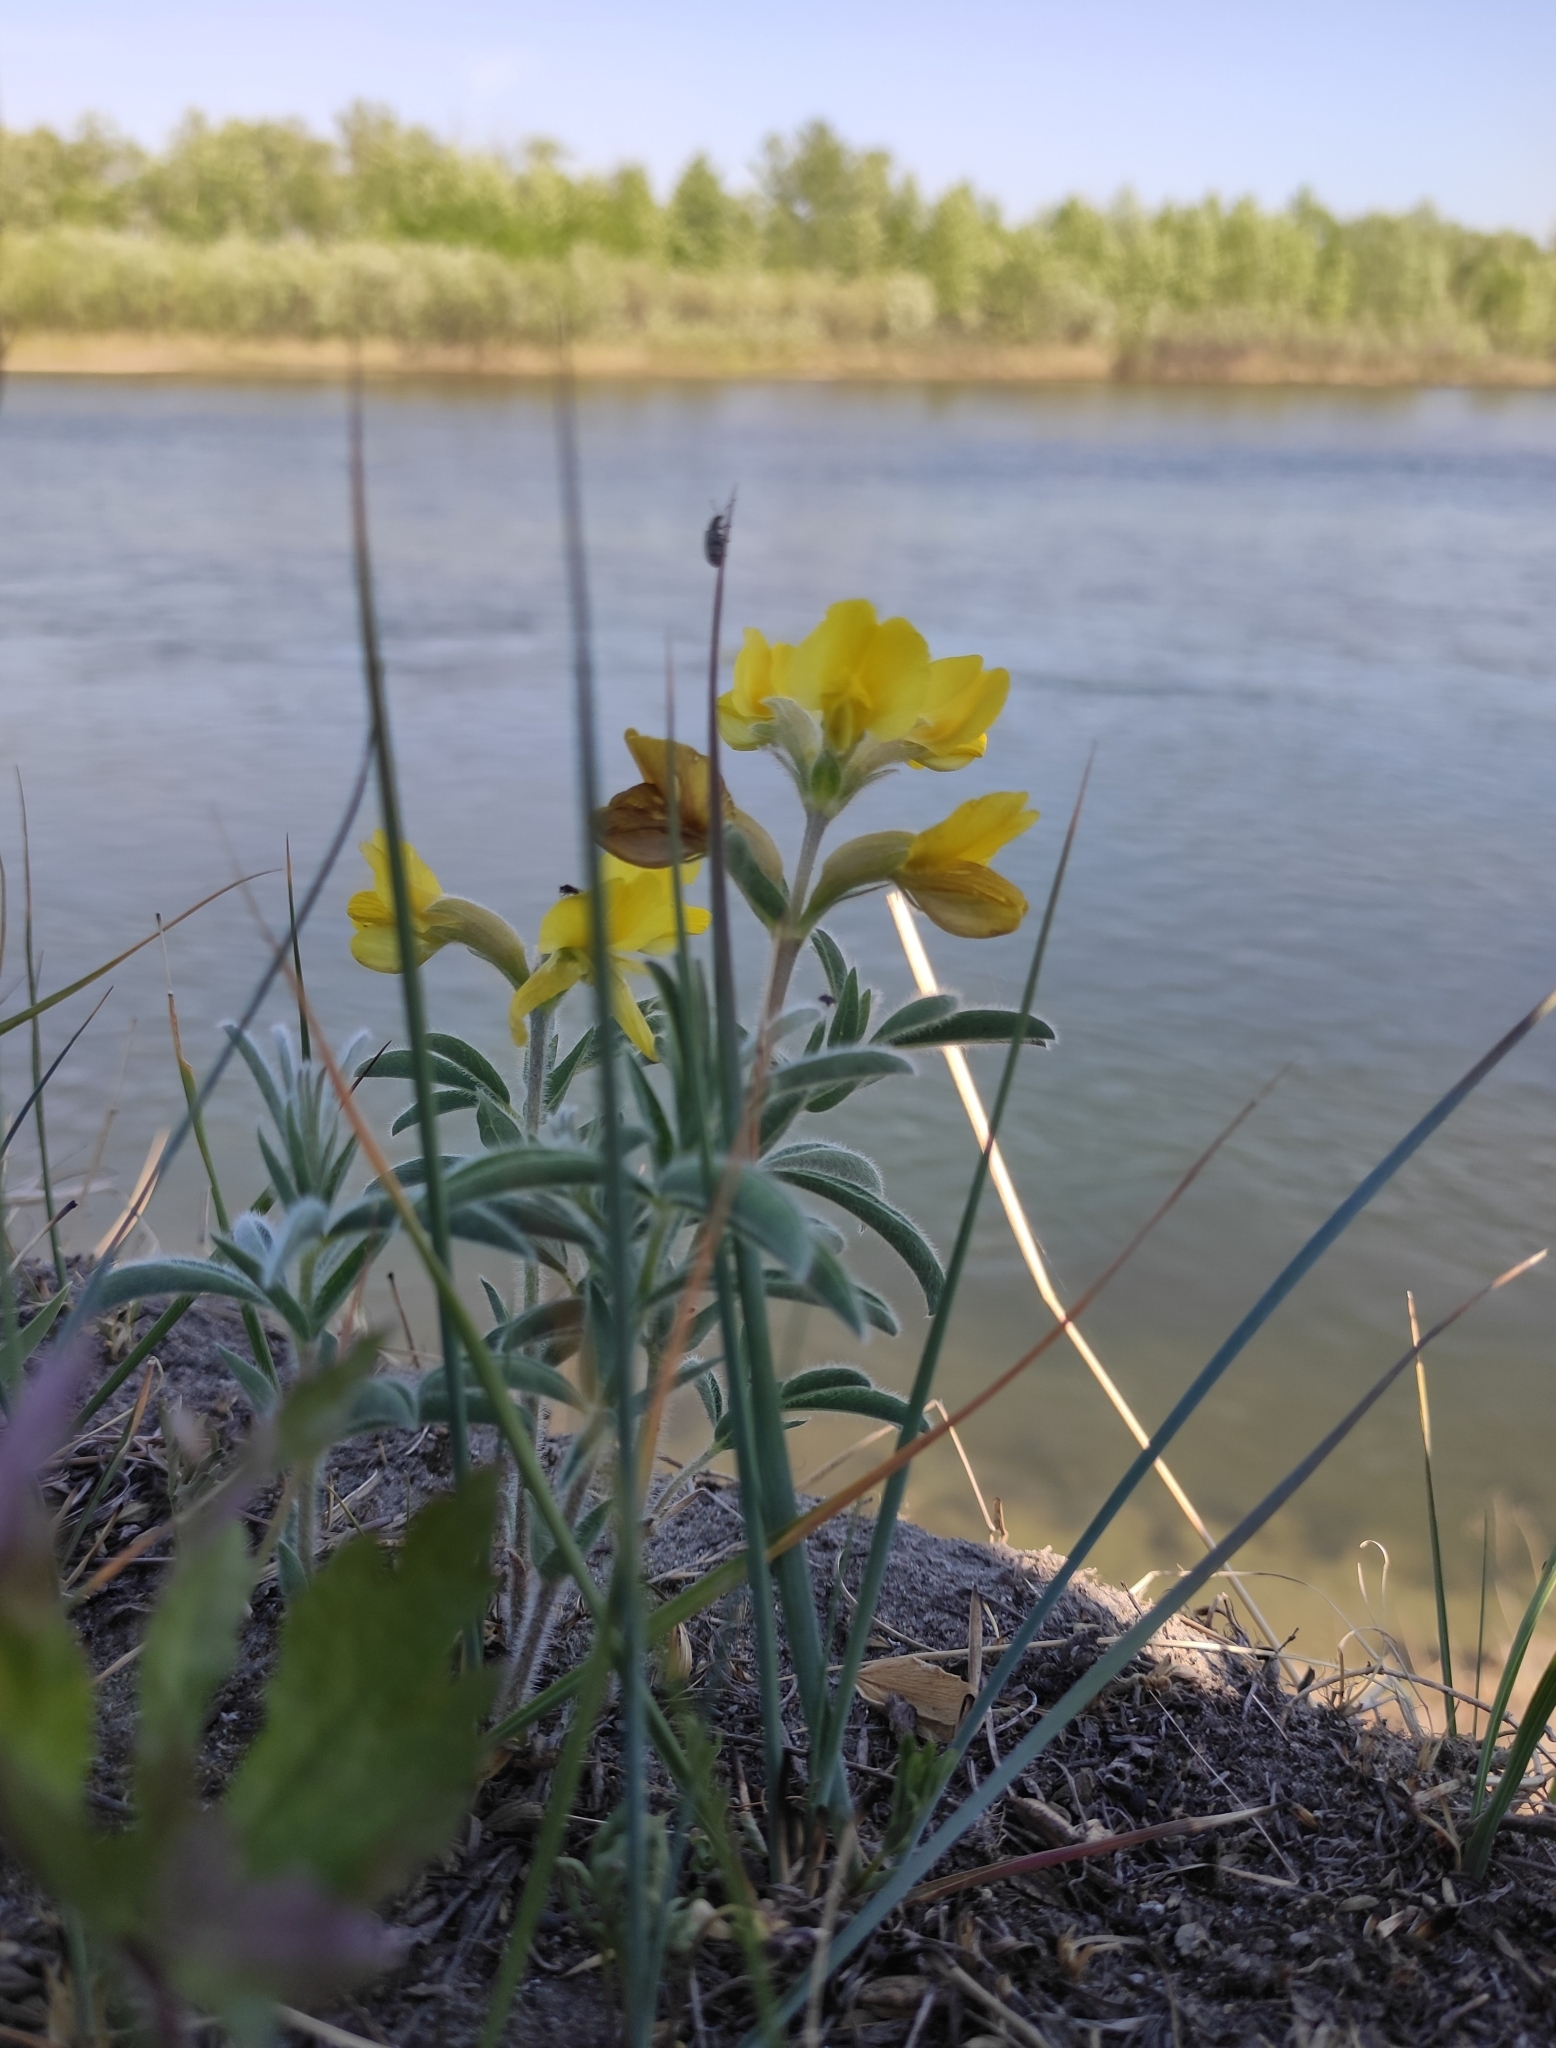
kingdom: Plantae
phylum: Tracheophyta
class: Magnoliopsida
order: Fabales
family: Fabaceae
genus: Thermopsis
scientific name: Thermopsis lanceolata
